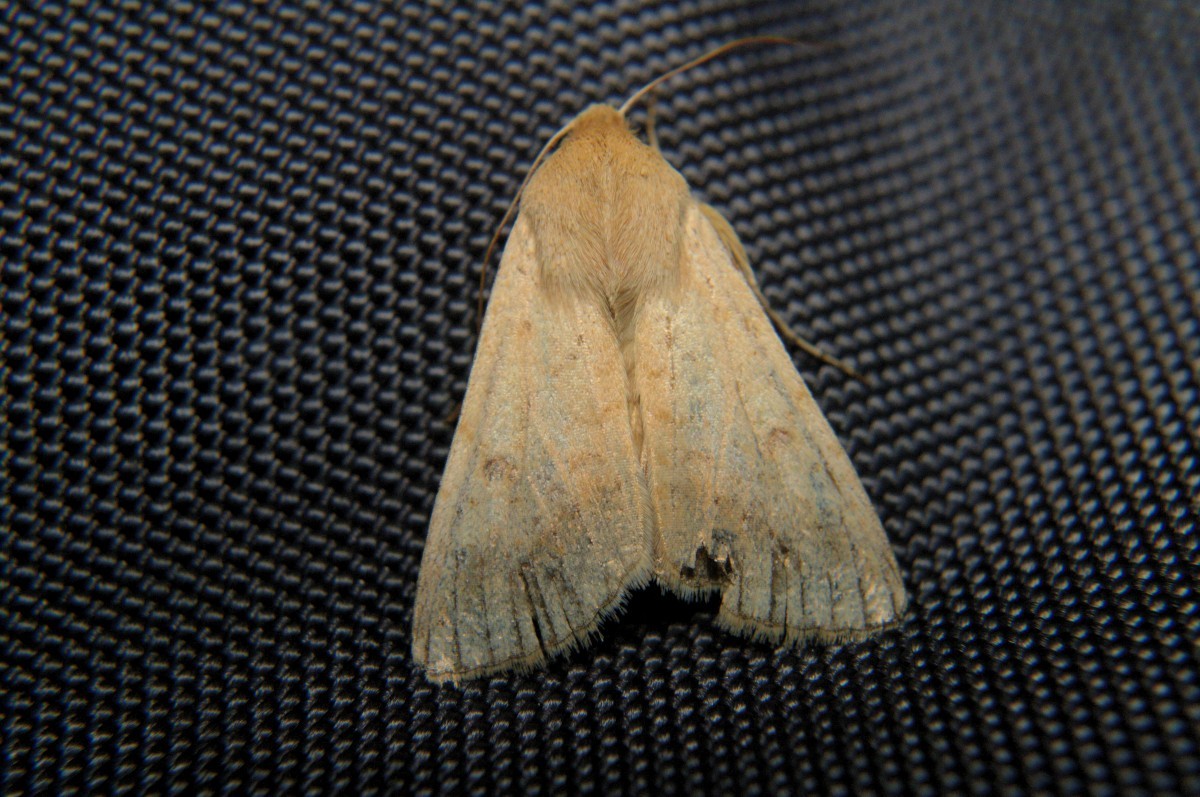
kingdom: Animalia
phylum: Arthropoda
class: Insecta
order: Lepidoptera
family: Noctuidae
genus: Helicoverpa
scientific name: Helicoverpa armigera
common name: Cotton bollworm
